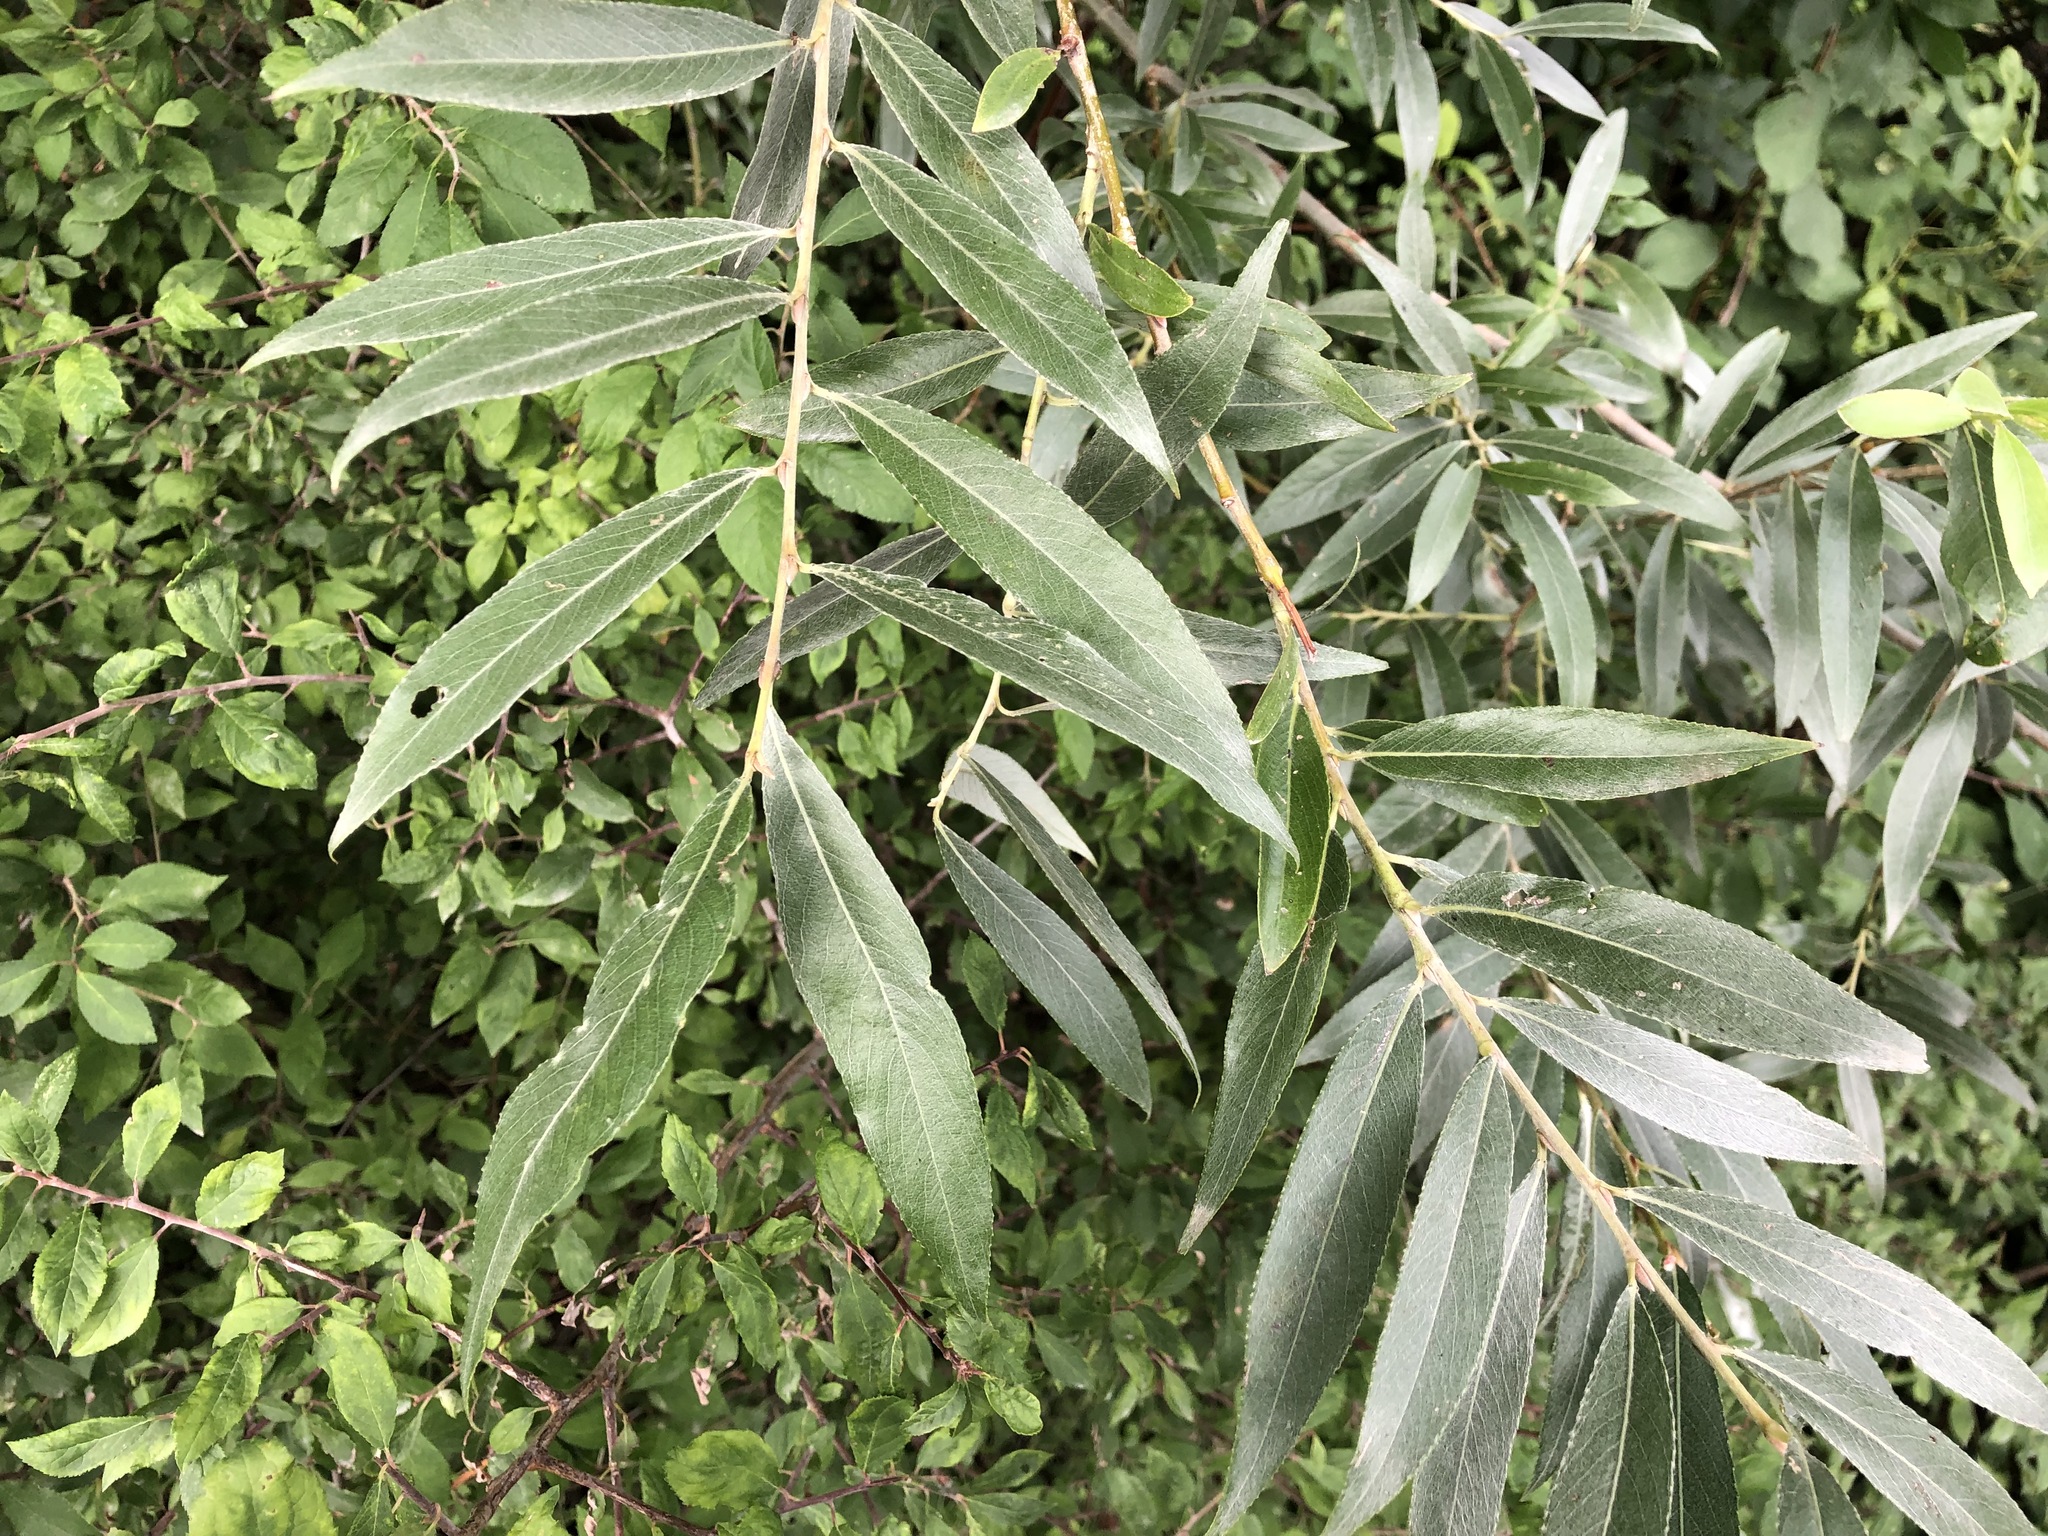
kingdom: Plantae
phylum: Tracheophyta
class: Magnoliopsida
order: Malpighiales
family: Salicaceae
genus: Salix
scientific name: Salix alba
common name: White willow
